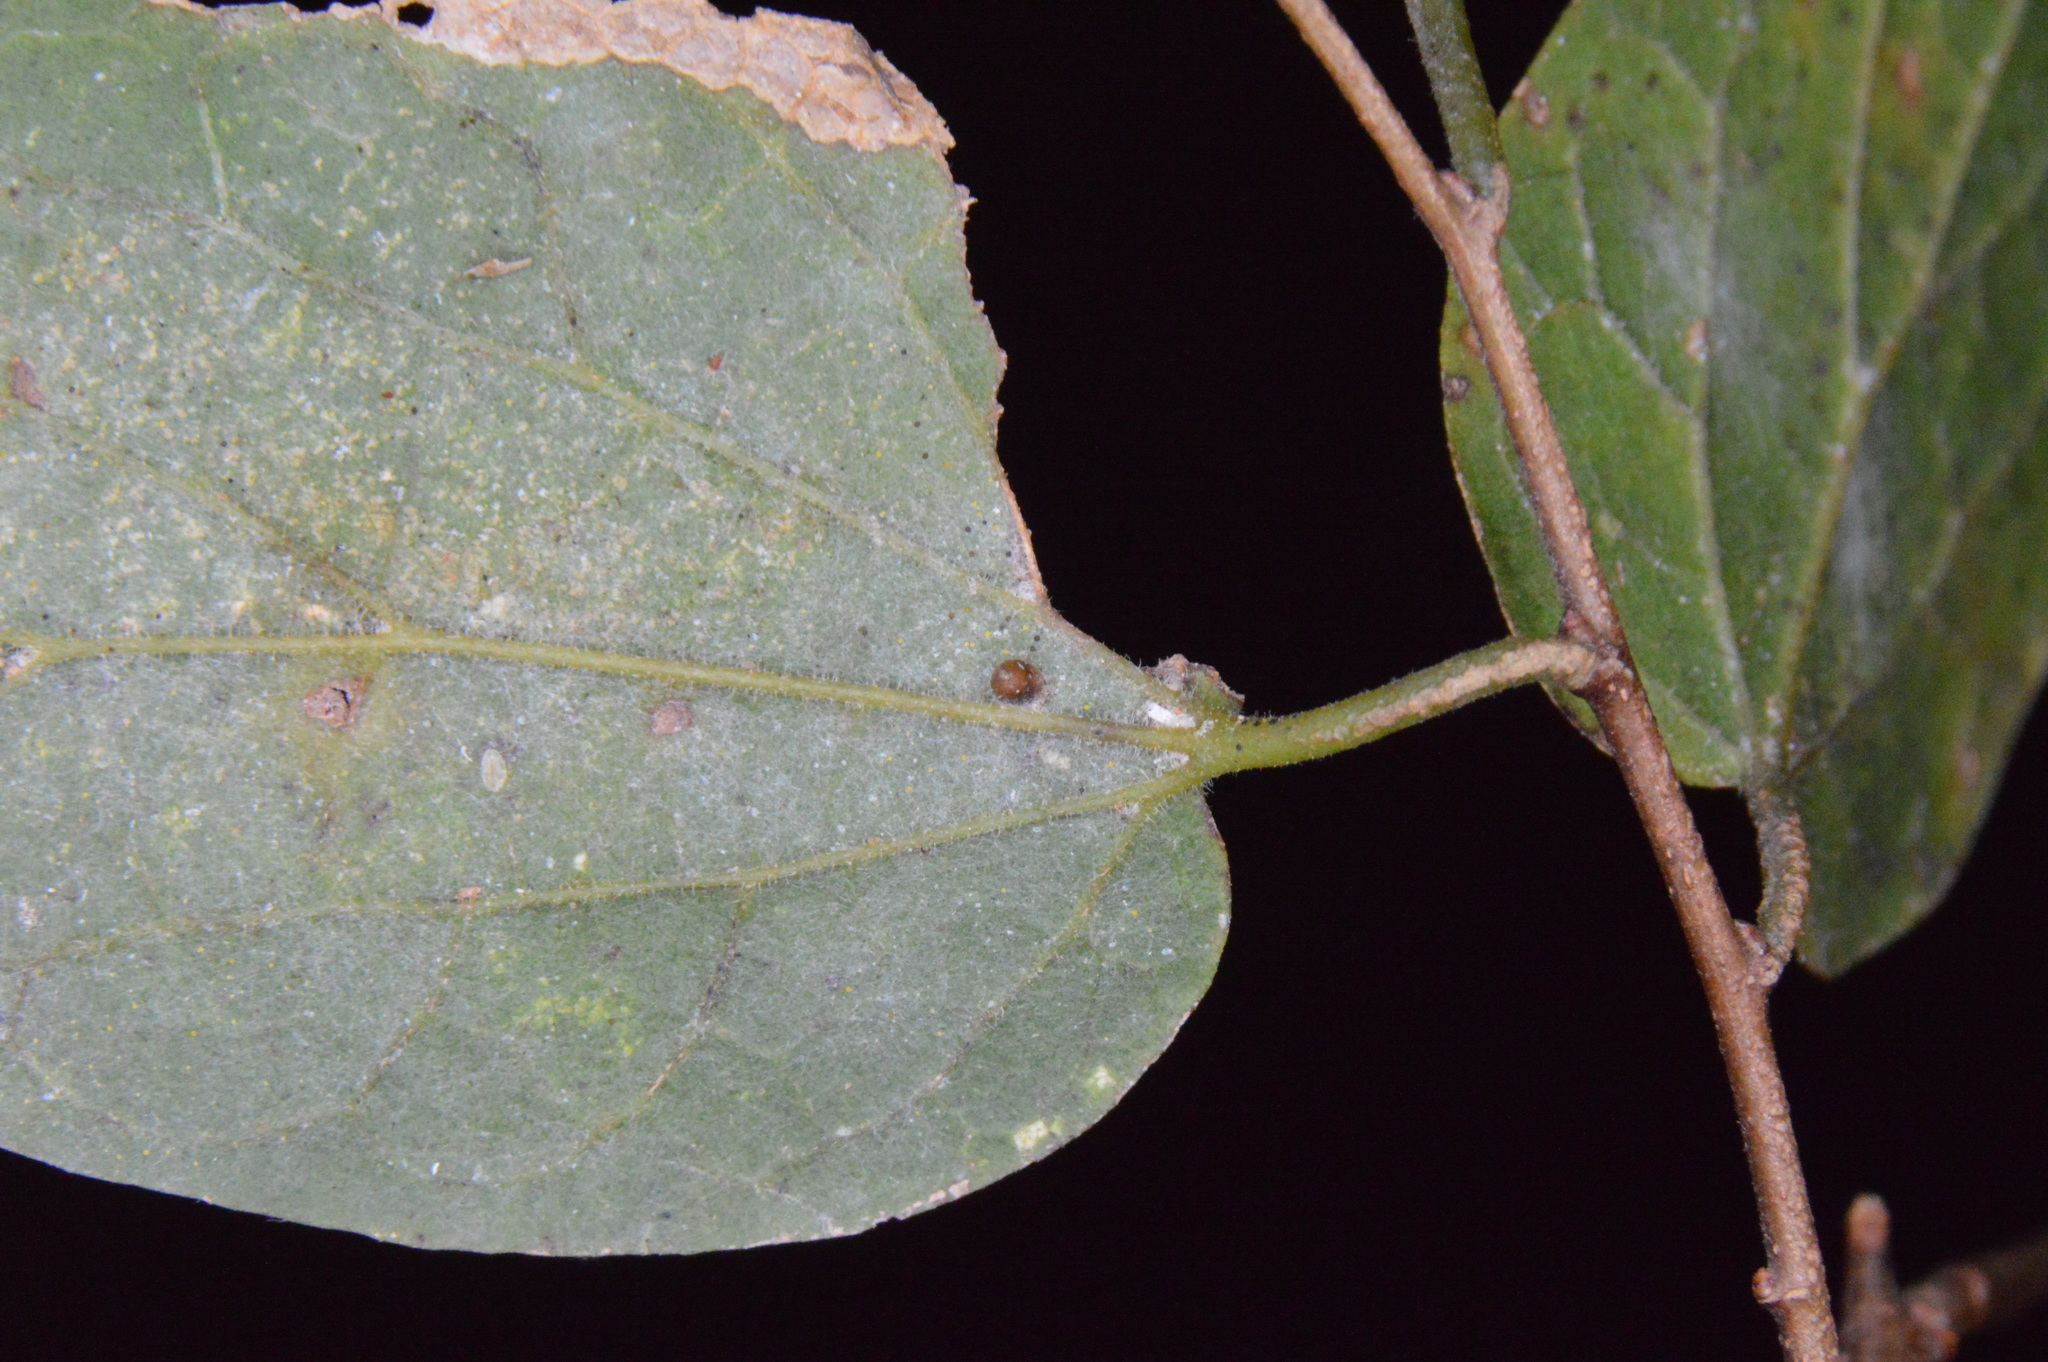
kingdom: Animalia
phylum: Arthropoda
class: Insecta
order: Diptera
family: Cecidomyiidae
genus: Celticecis
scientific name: Celticecis cupiformis
